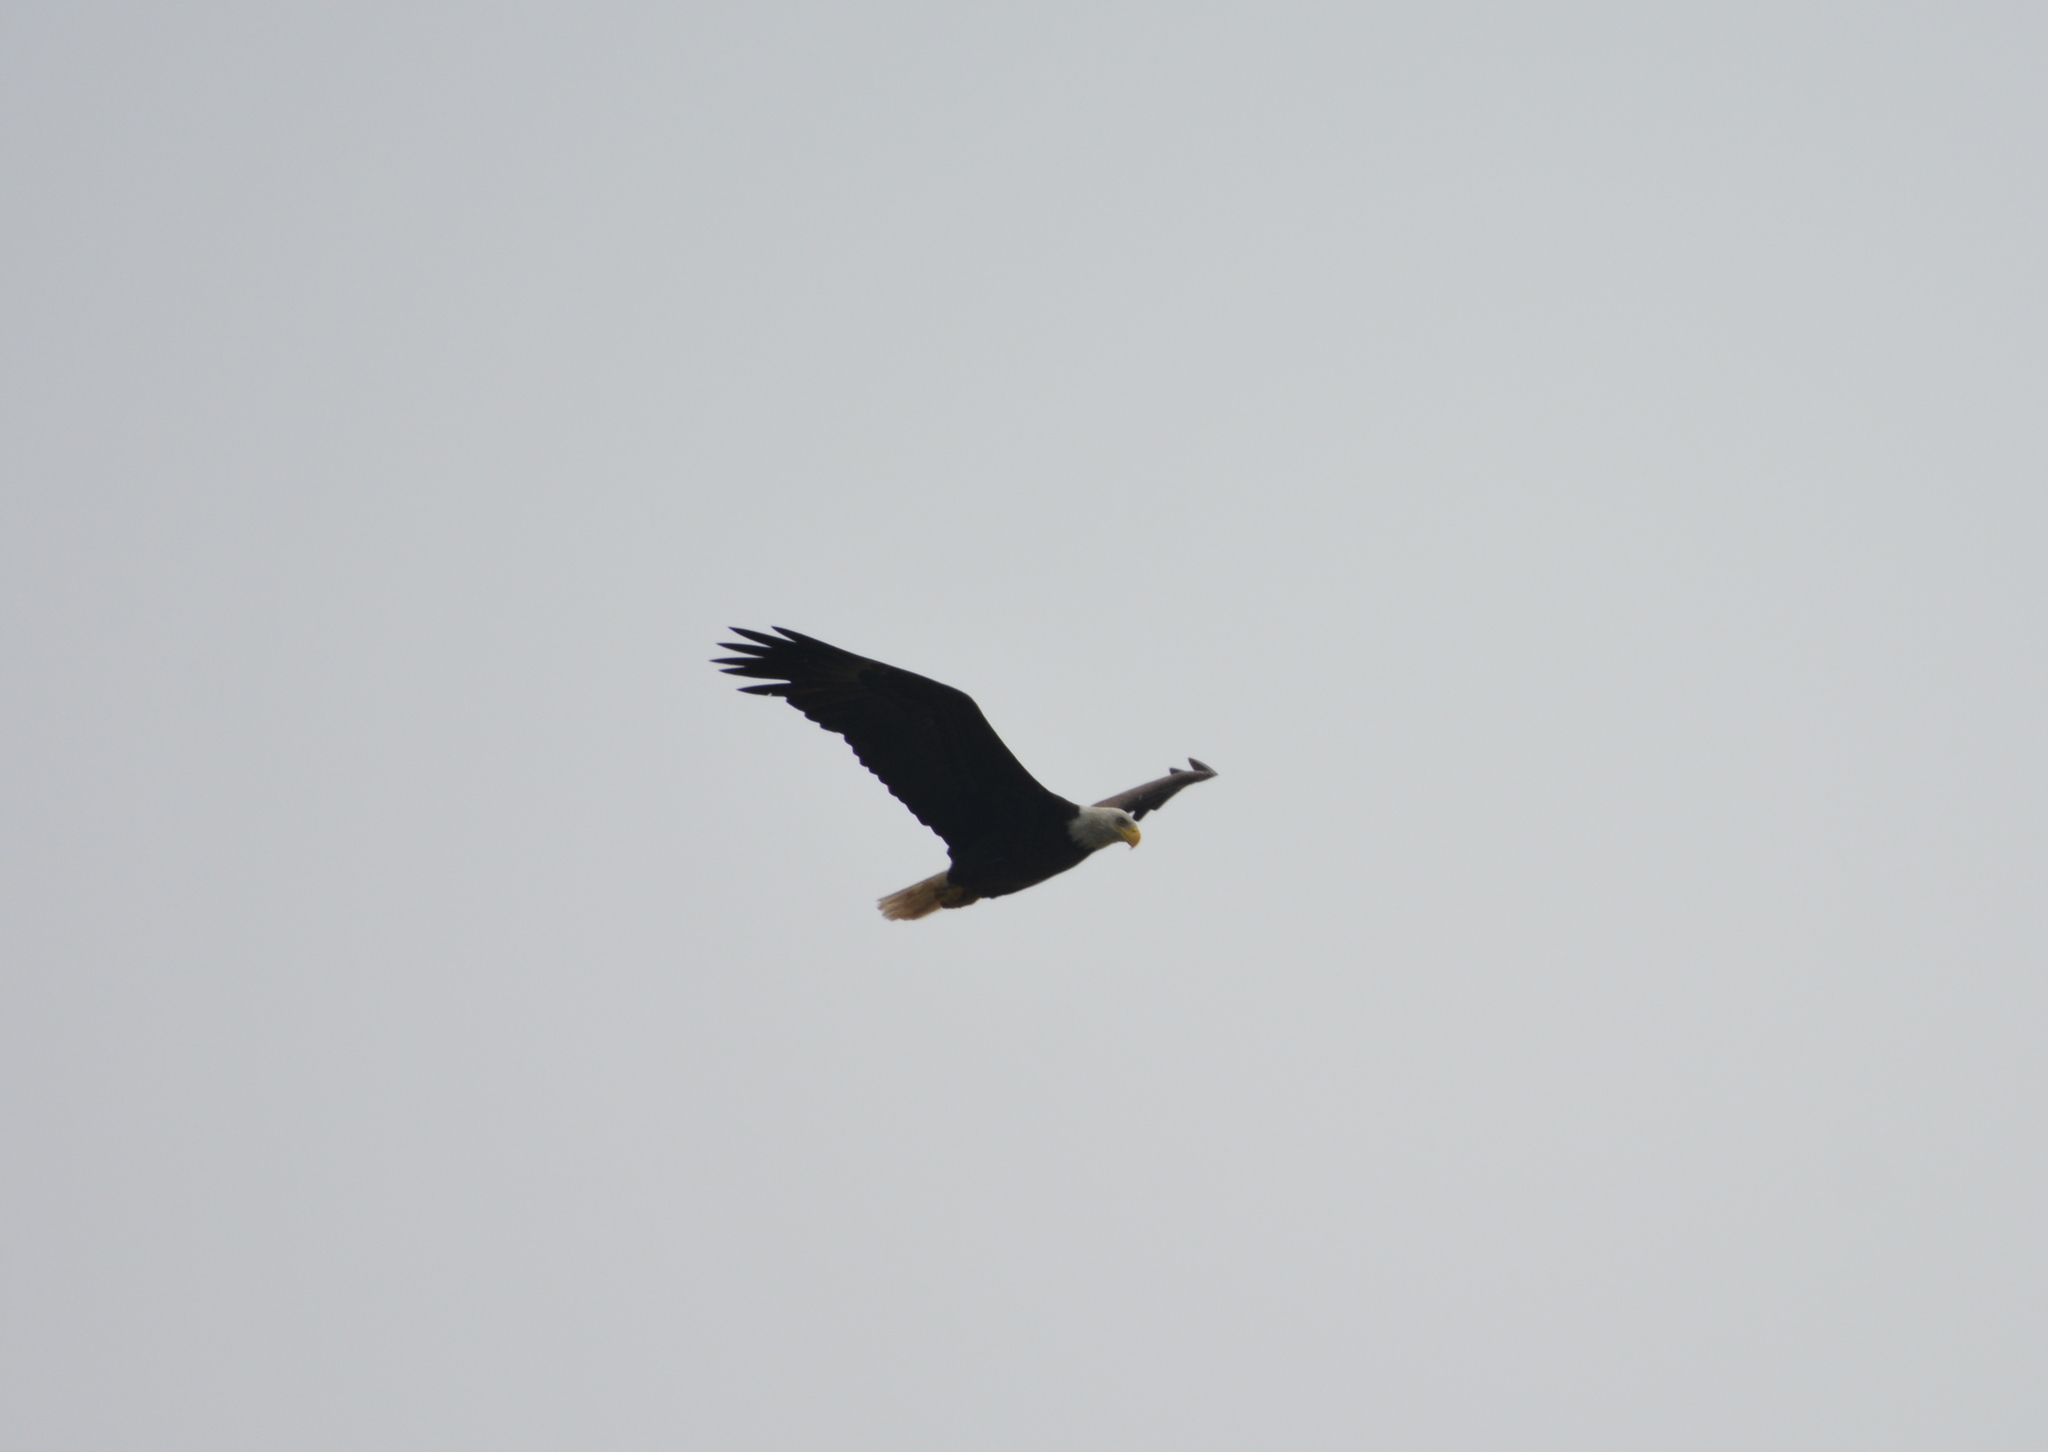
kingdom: Animalia
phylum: Chordata
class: Aves
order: Accipitriformes
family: Accipitridae
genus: Haliaeetus
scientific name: Haliaeetus leucocephalus
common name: Bald eagle
